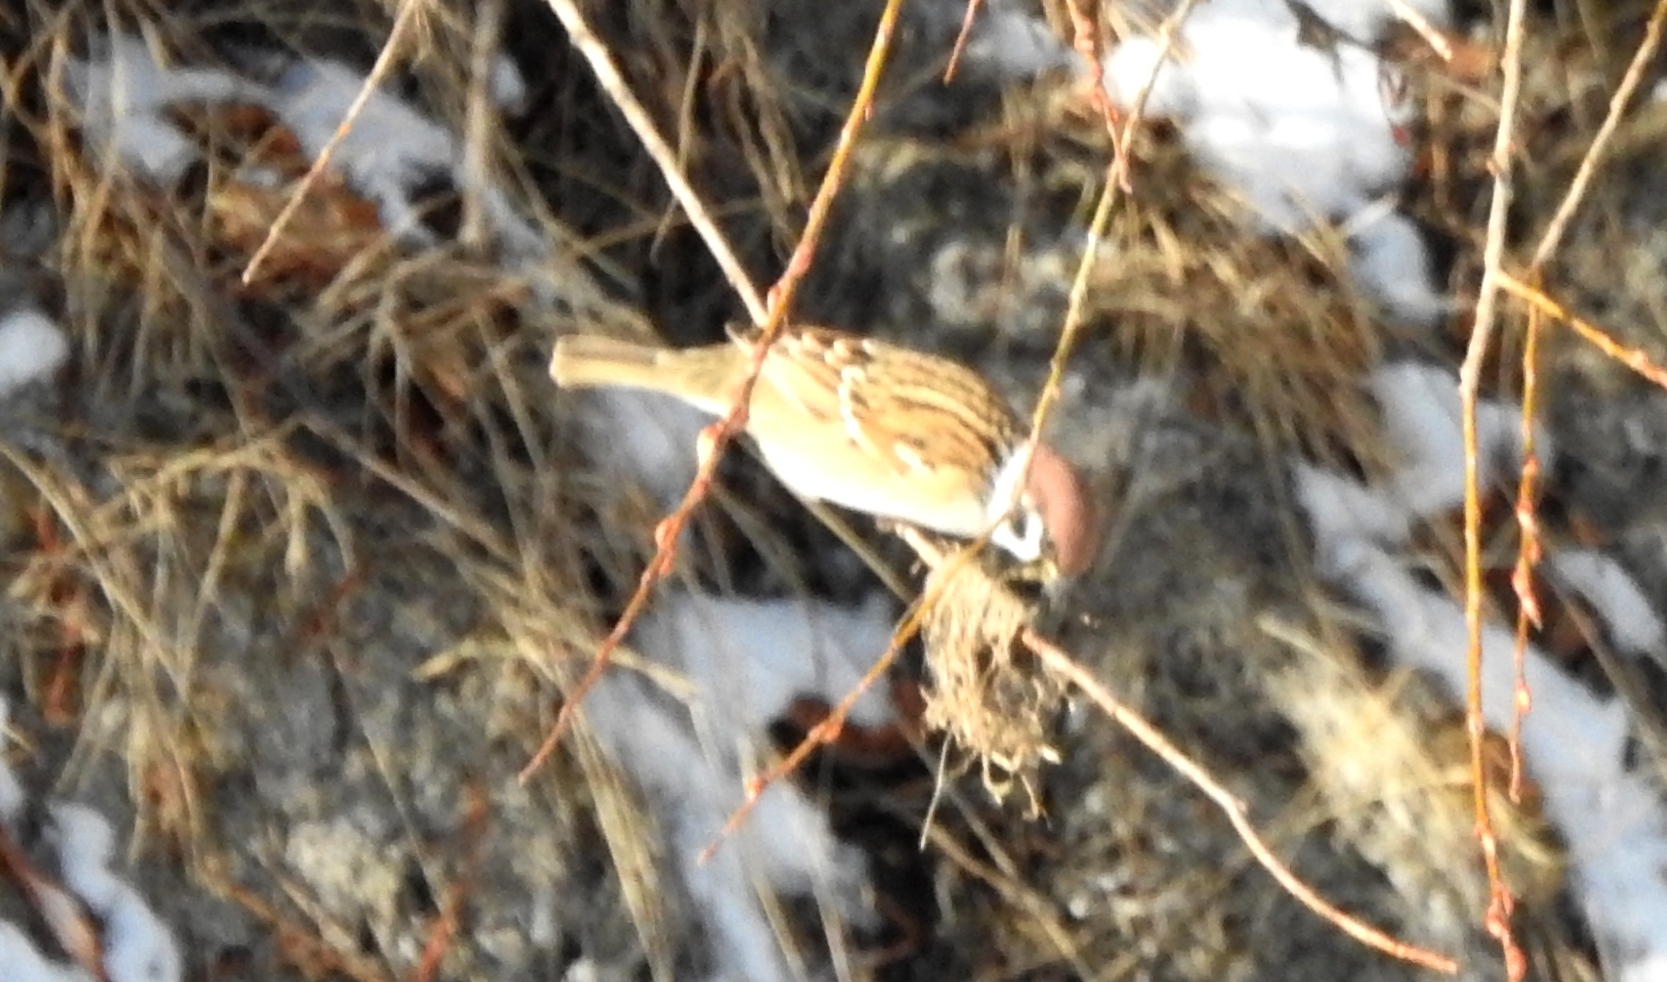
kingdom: Animalia
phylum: Chordata
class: Aves
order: Passeriformes
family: Passeridae
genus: Passer
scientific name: Passer montanus
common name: Eurasian tree sparrow
